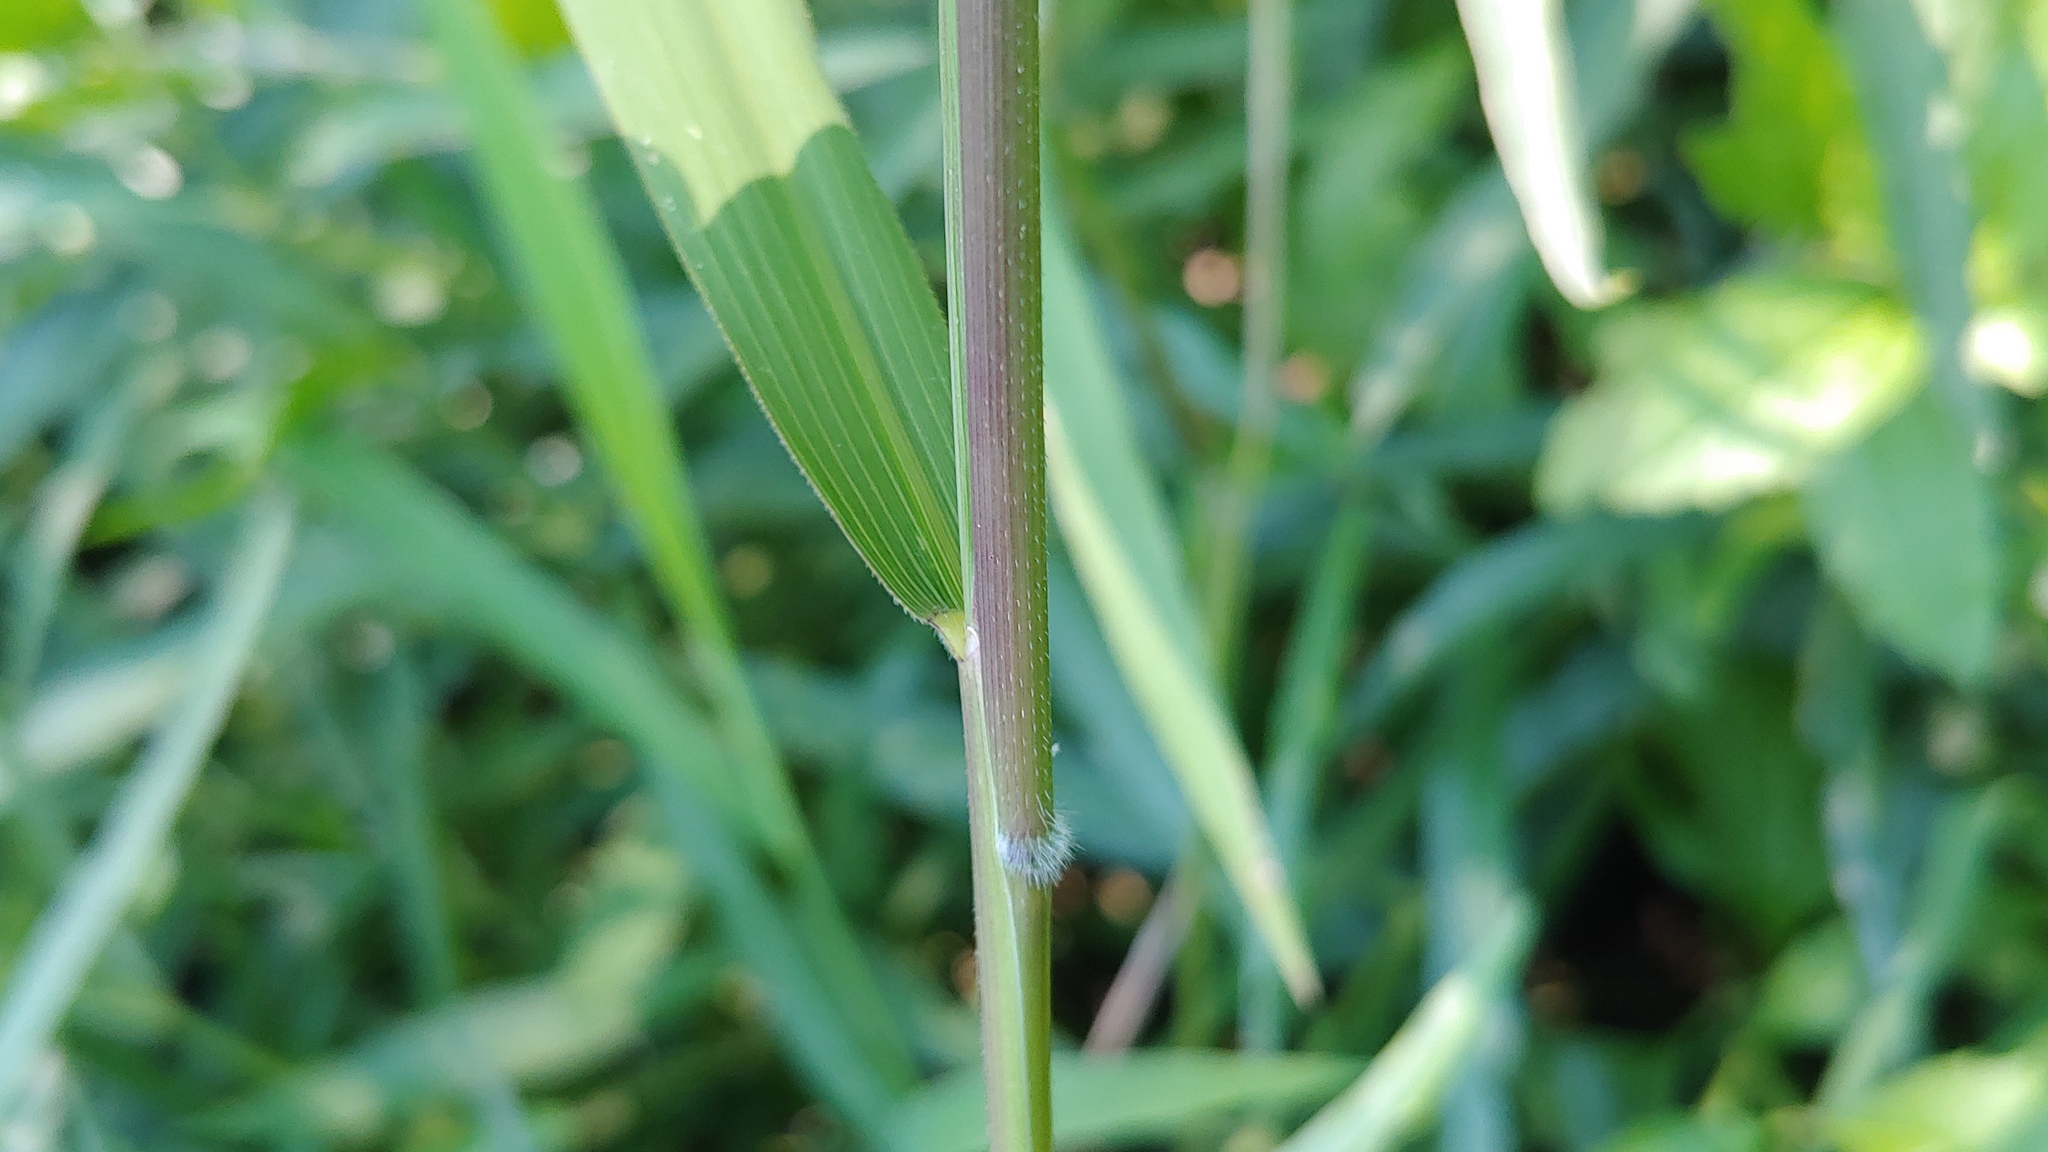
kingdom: Plantae
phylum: Tracheophyta
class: Liliopsida
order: Poales
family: Poaceae
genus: Leersia
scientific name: Leersia oryzoides
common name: Cut-grass
